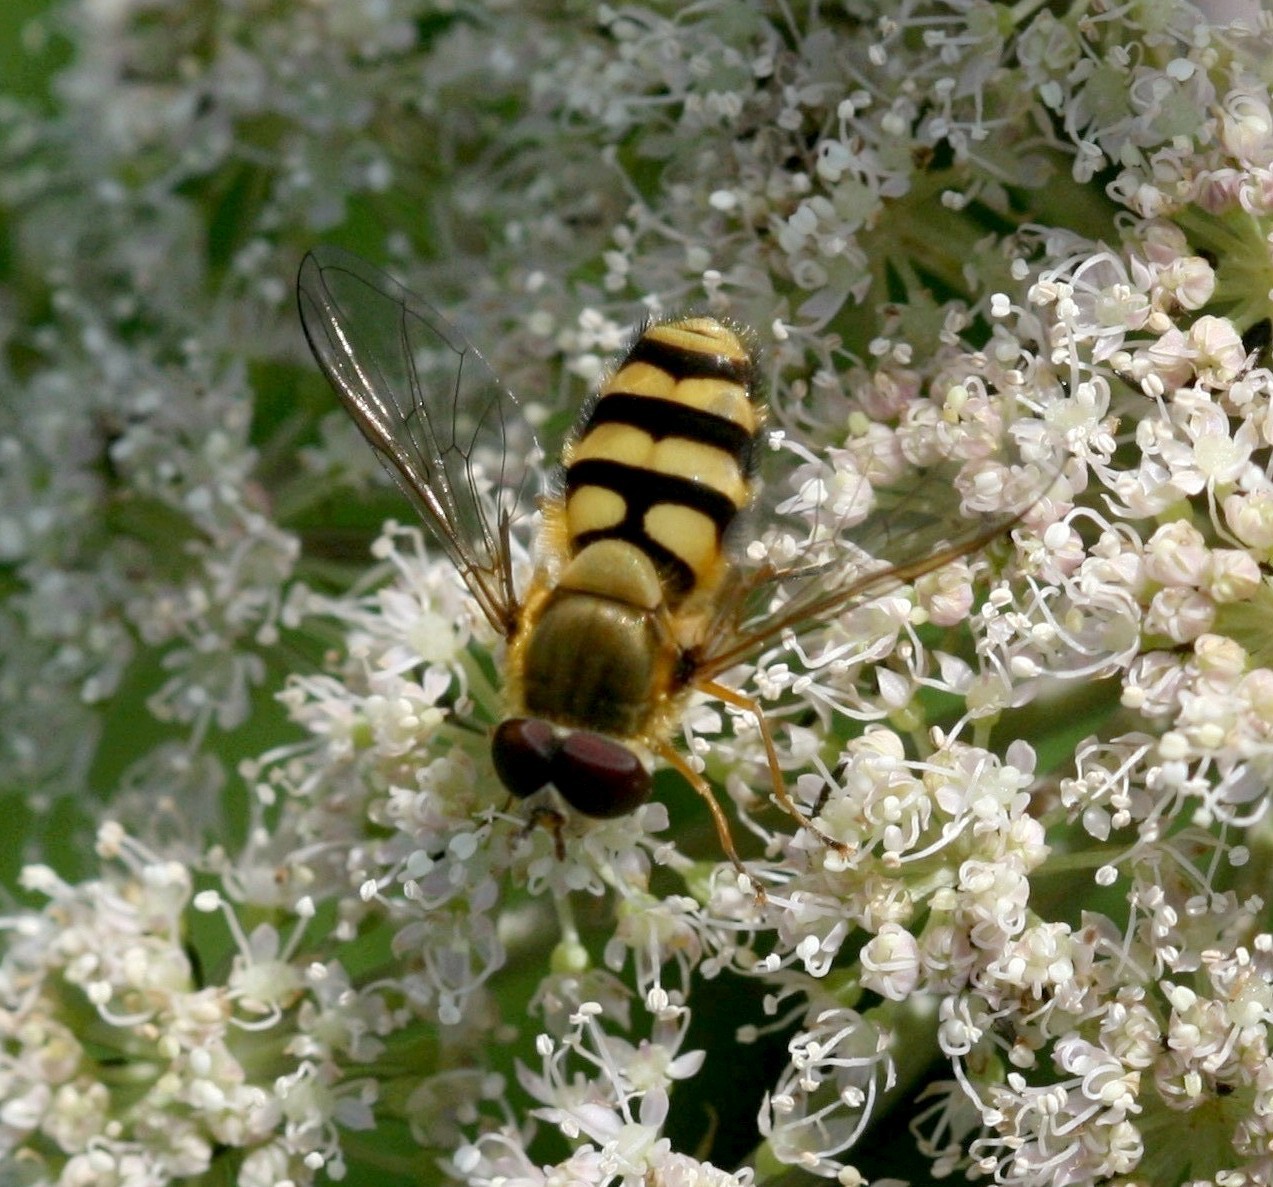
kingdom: Animalia
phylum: Arthropoda
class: Insecta
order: Diptera
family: Syrphidae
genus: Syrphus
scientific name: Syrphus
